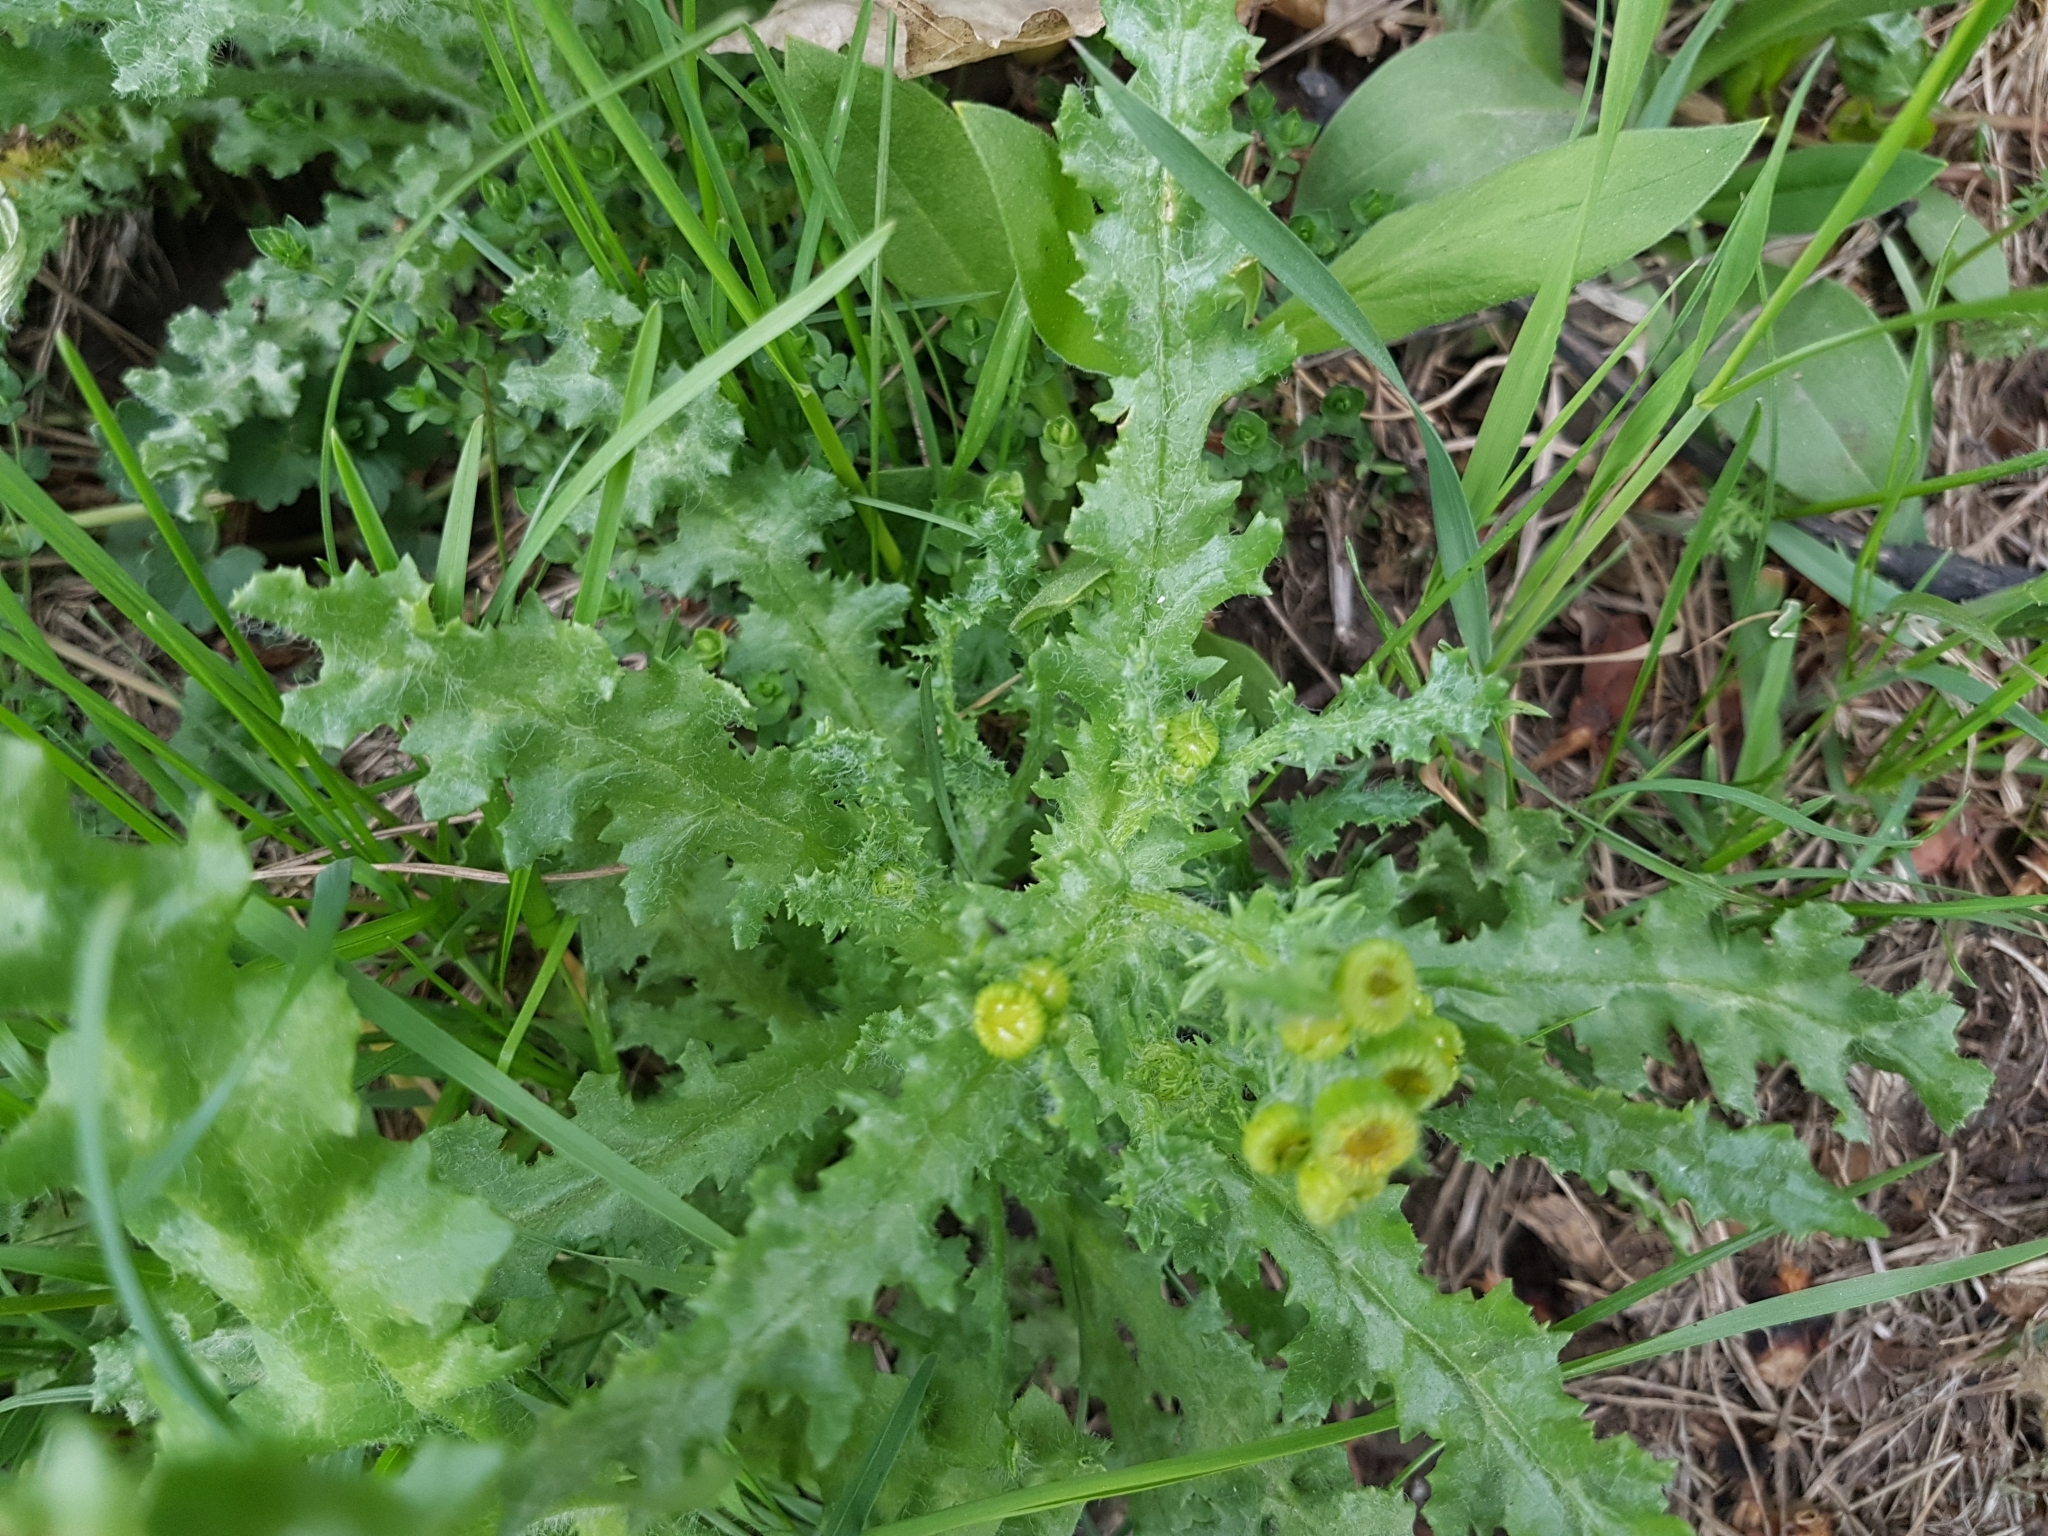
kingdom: Plantae
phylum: Tracheophyta
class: Magnoliopsida
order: Asterales
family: Asteraceae
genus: Senecio
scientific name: Senecio vernalis
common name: Eastern groundsel
